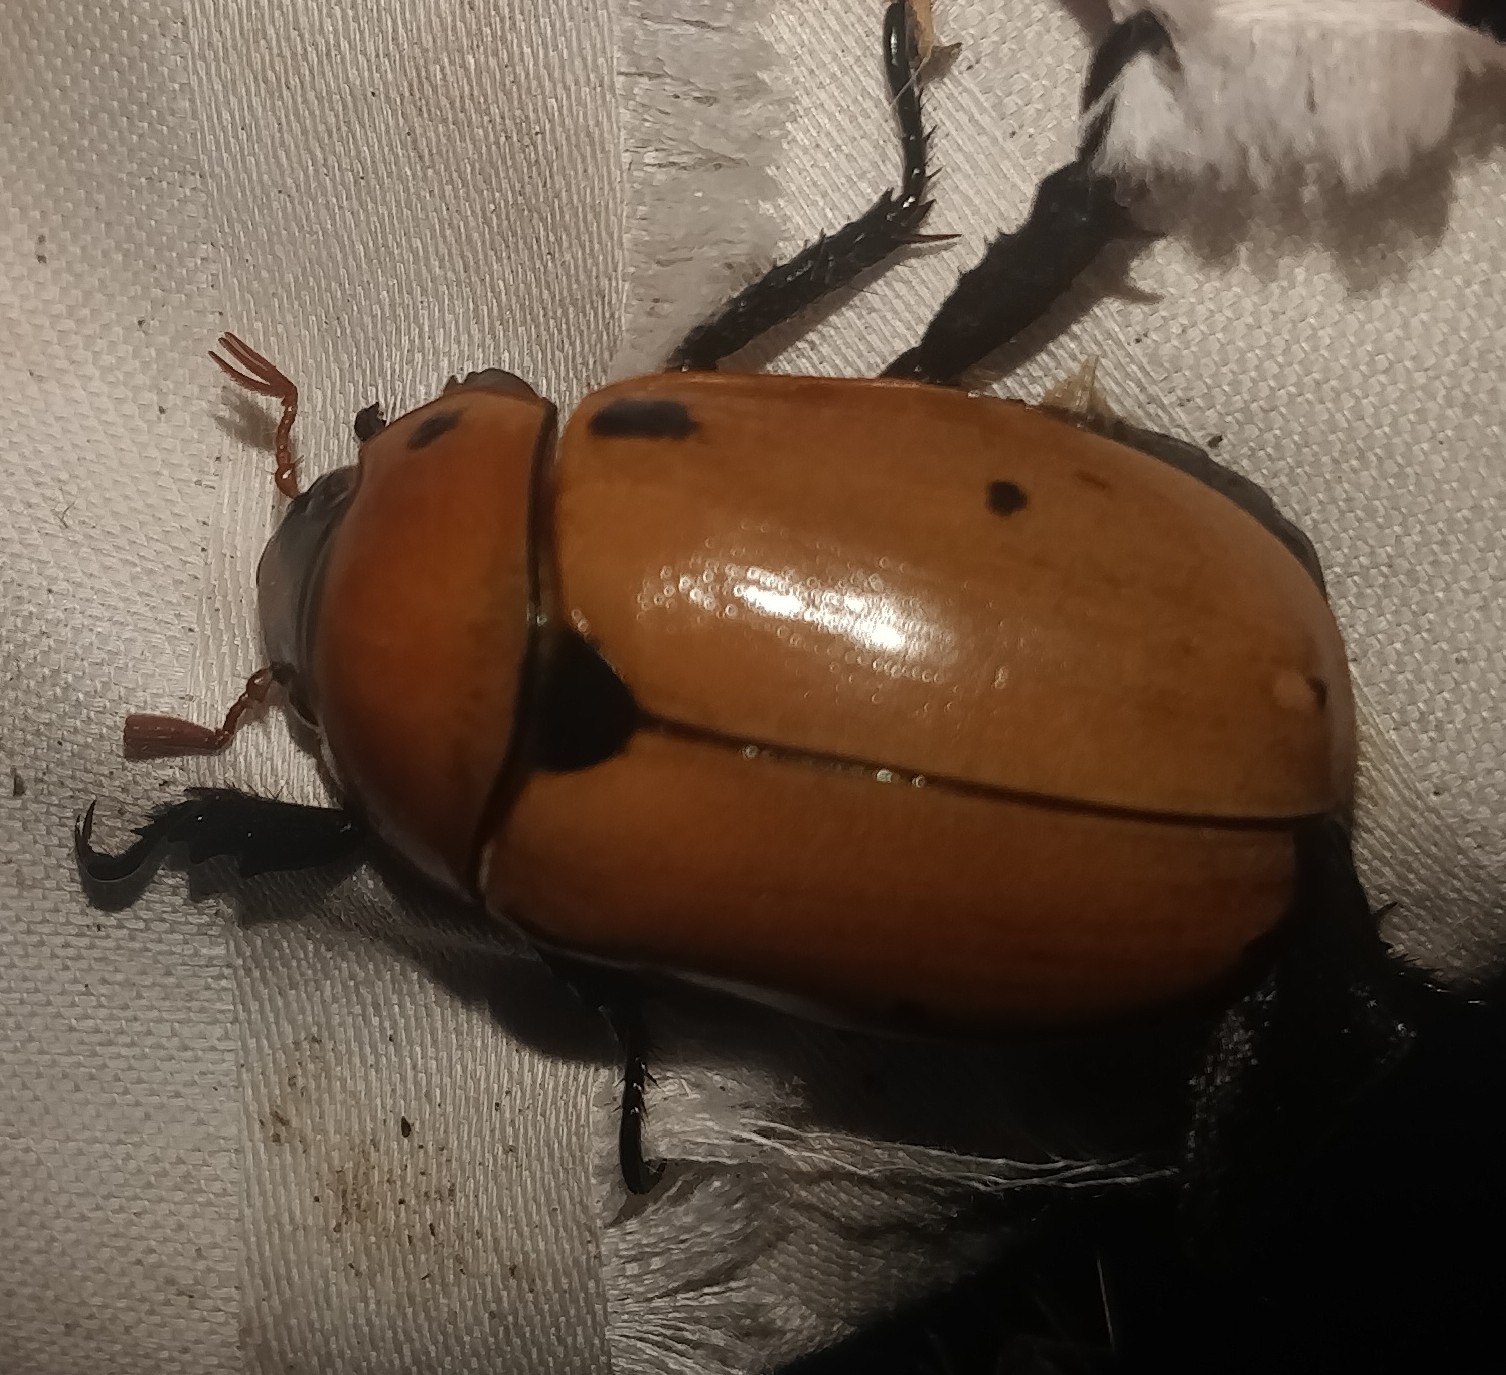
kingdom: Animalia
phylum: Arthropoda
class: Insecta
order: Coleoptera
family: Scarabaeidae
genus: Pelidnota
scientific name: Pelidnota punctata
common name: Grapevine beetle
